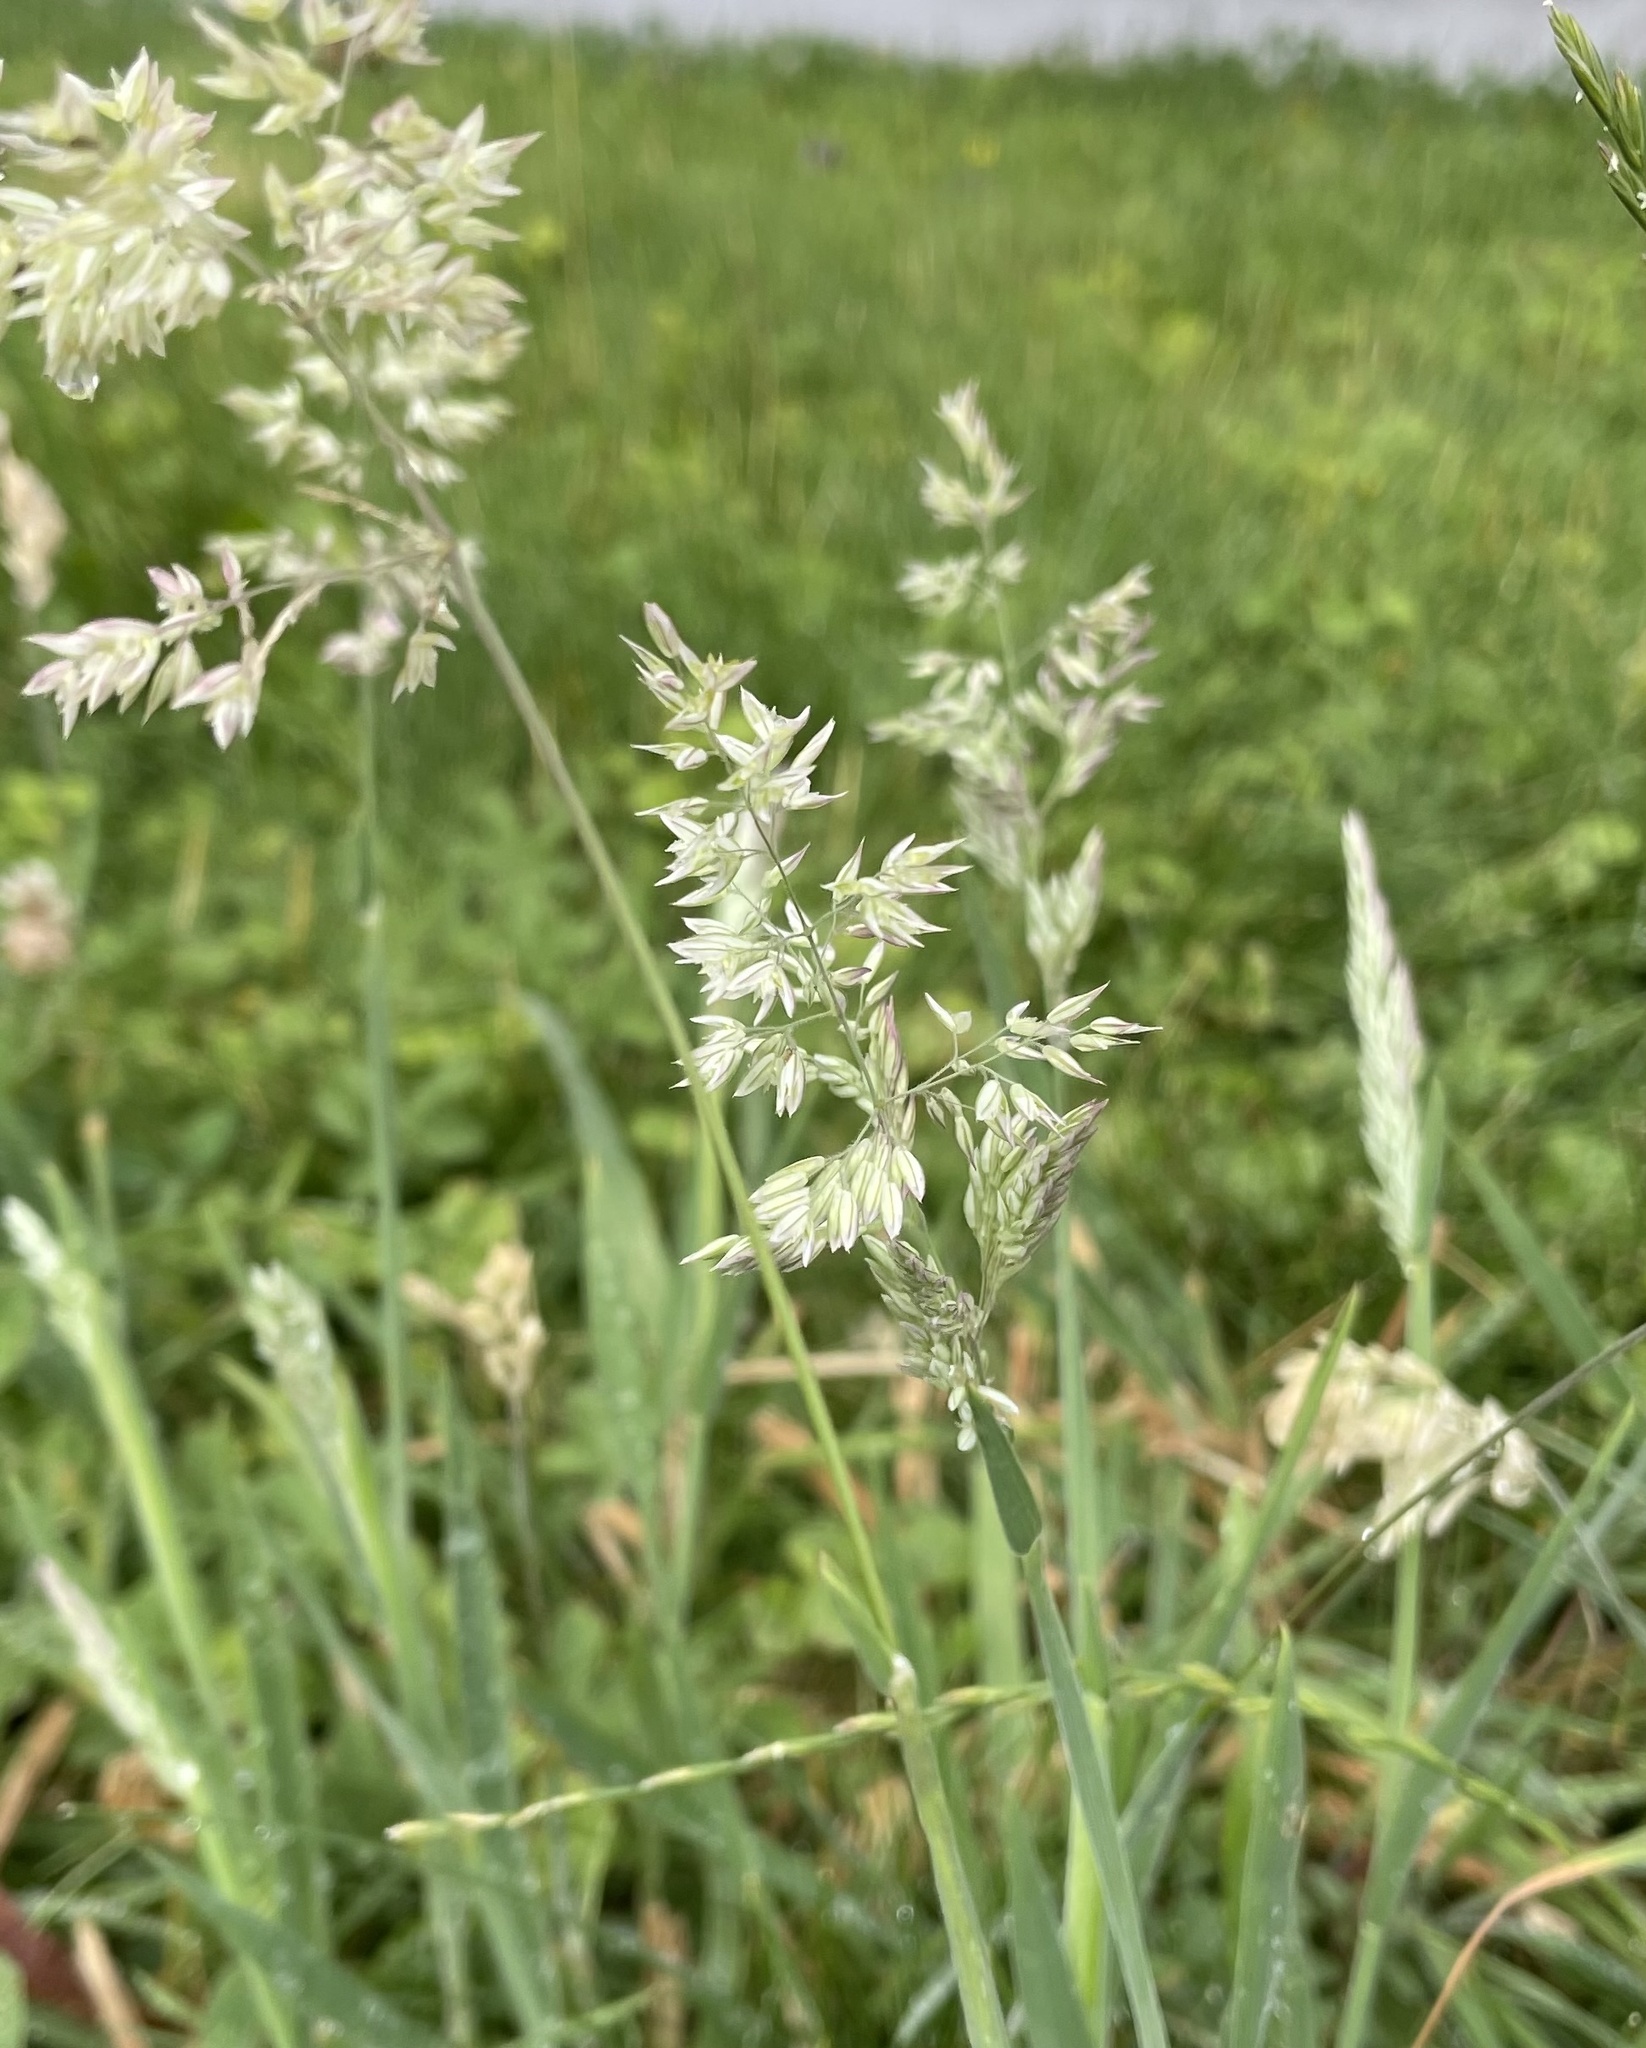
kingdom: Plantae
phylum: Tracheophyta
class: Liliopsida
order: Poales
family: Poaceae
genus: Holcus
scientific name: Holcus lanatus
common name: Yorkshire-fog
